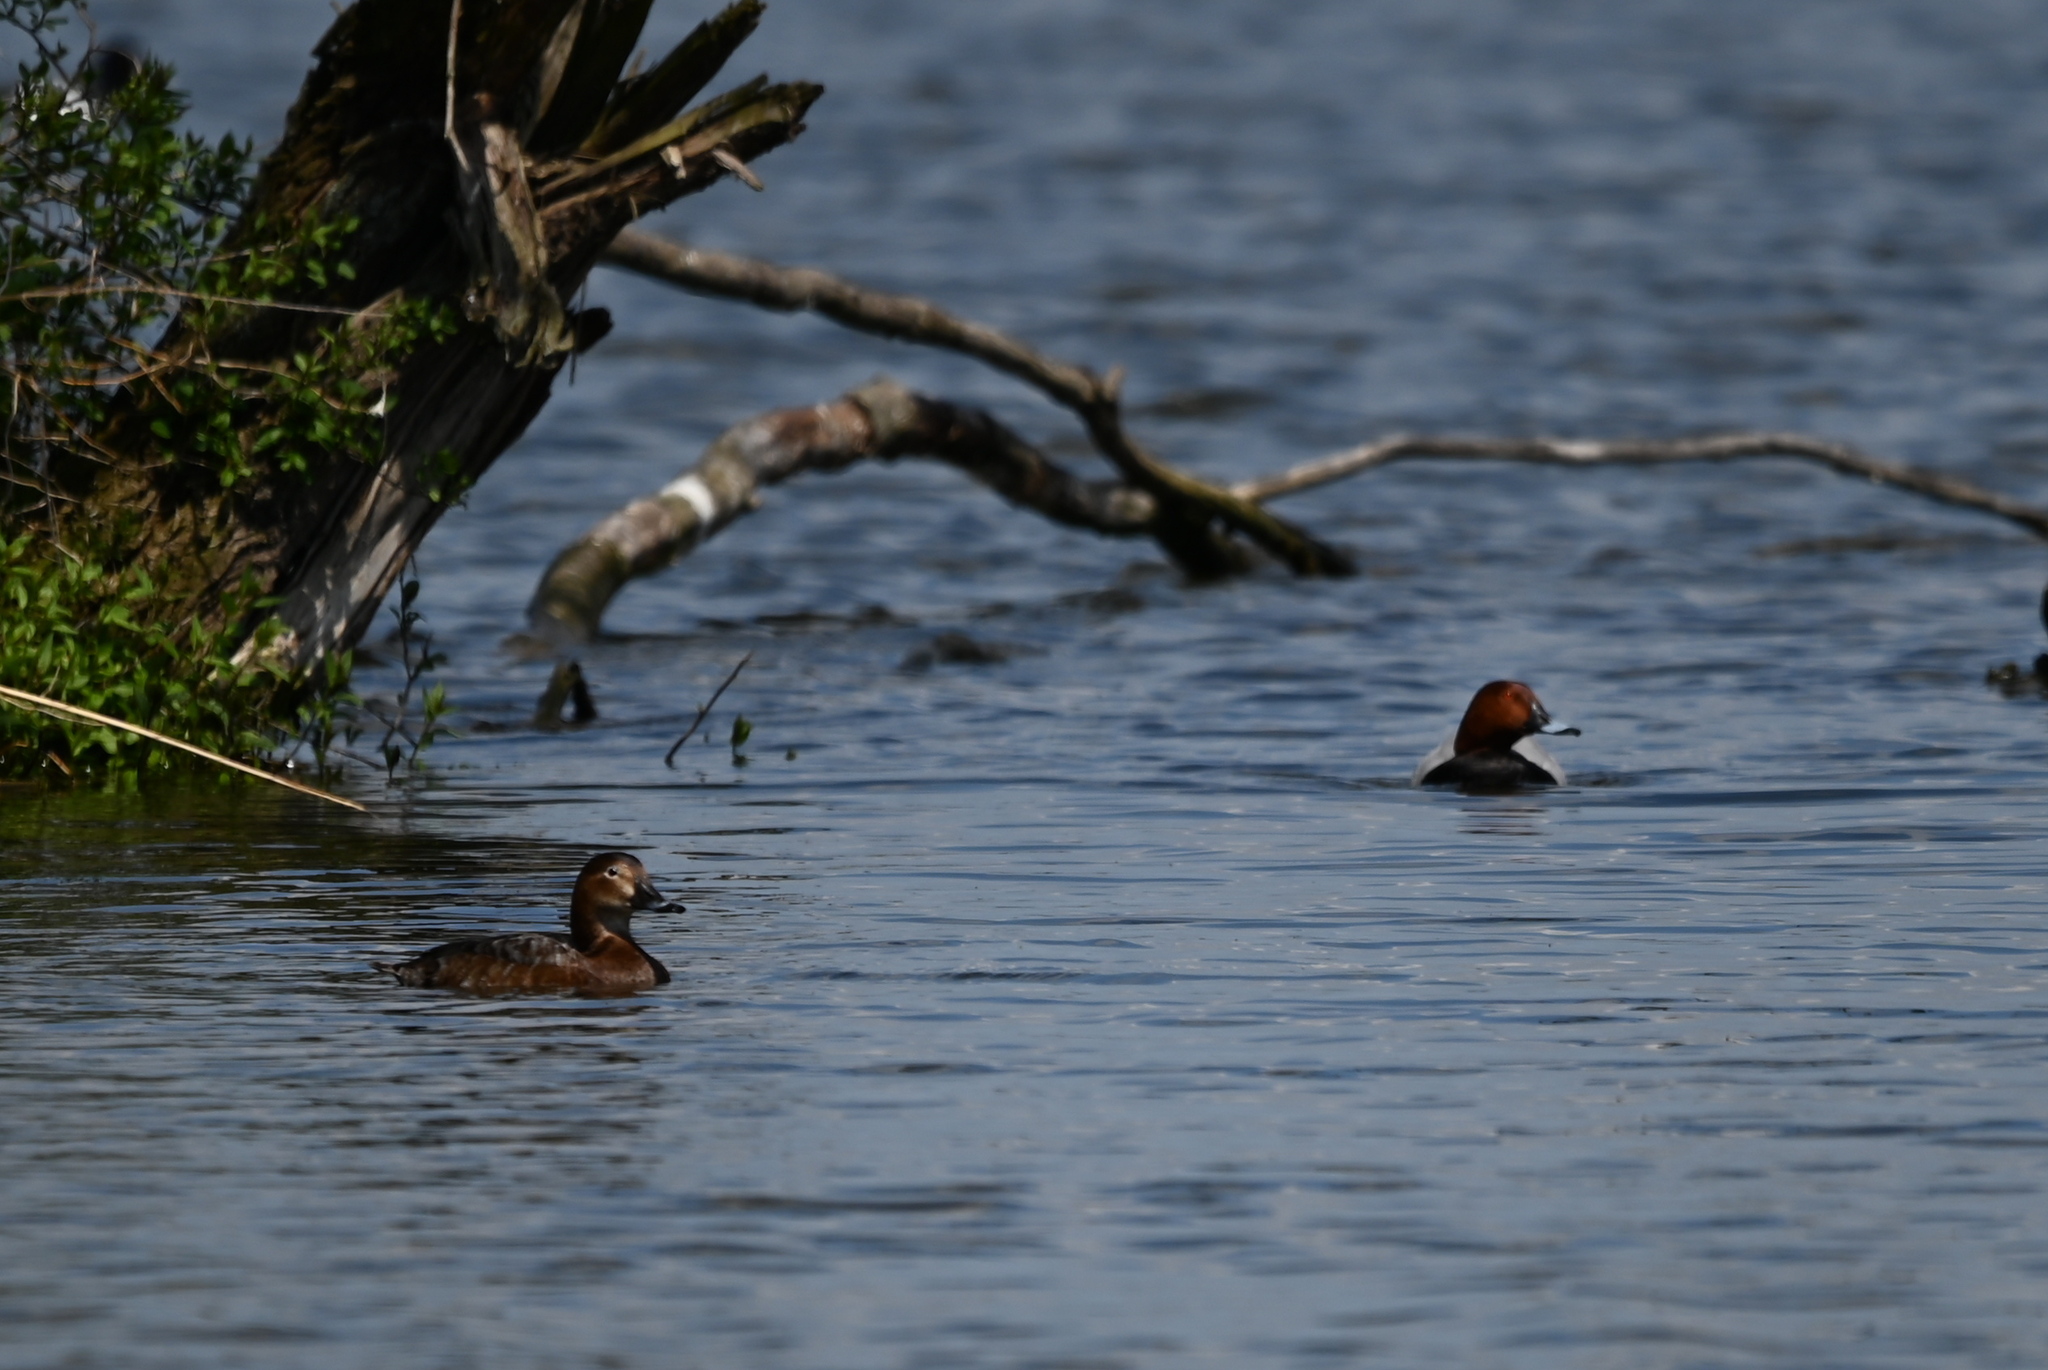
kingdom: Animalia
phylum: Chordata
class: Aves
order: Anseriformes
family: Anatidae
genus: Aythya
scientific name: Aythya ferina
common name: Common pochard
